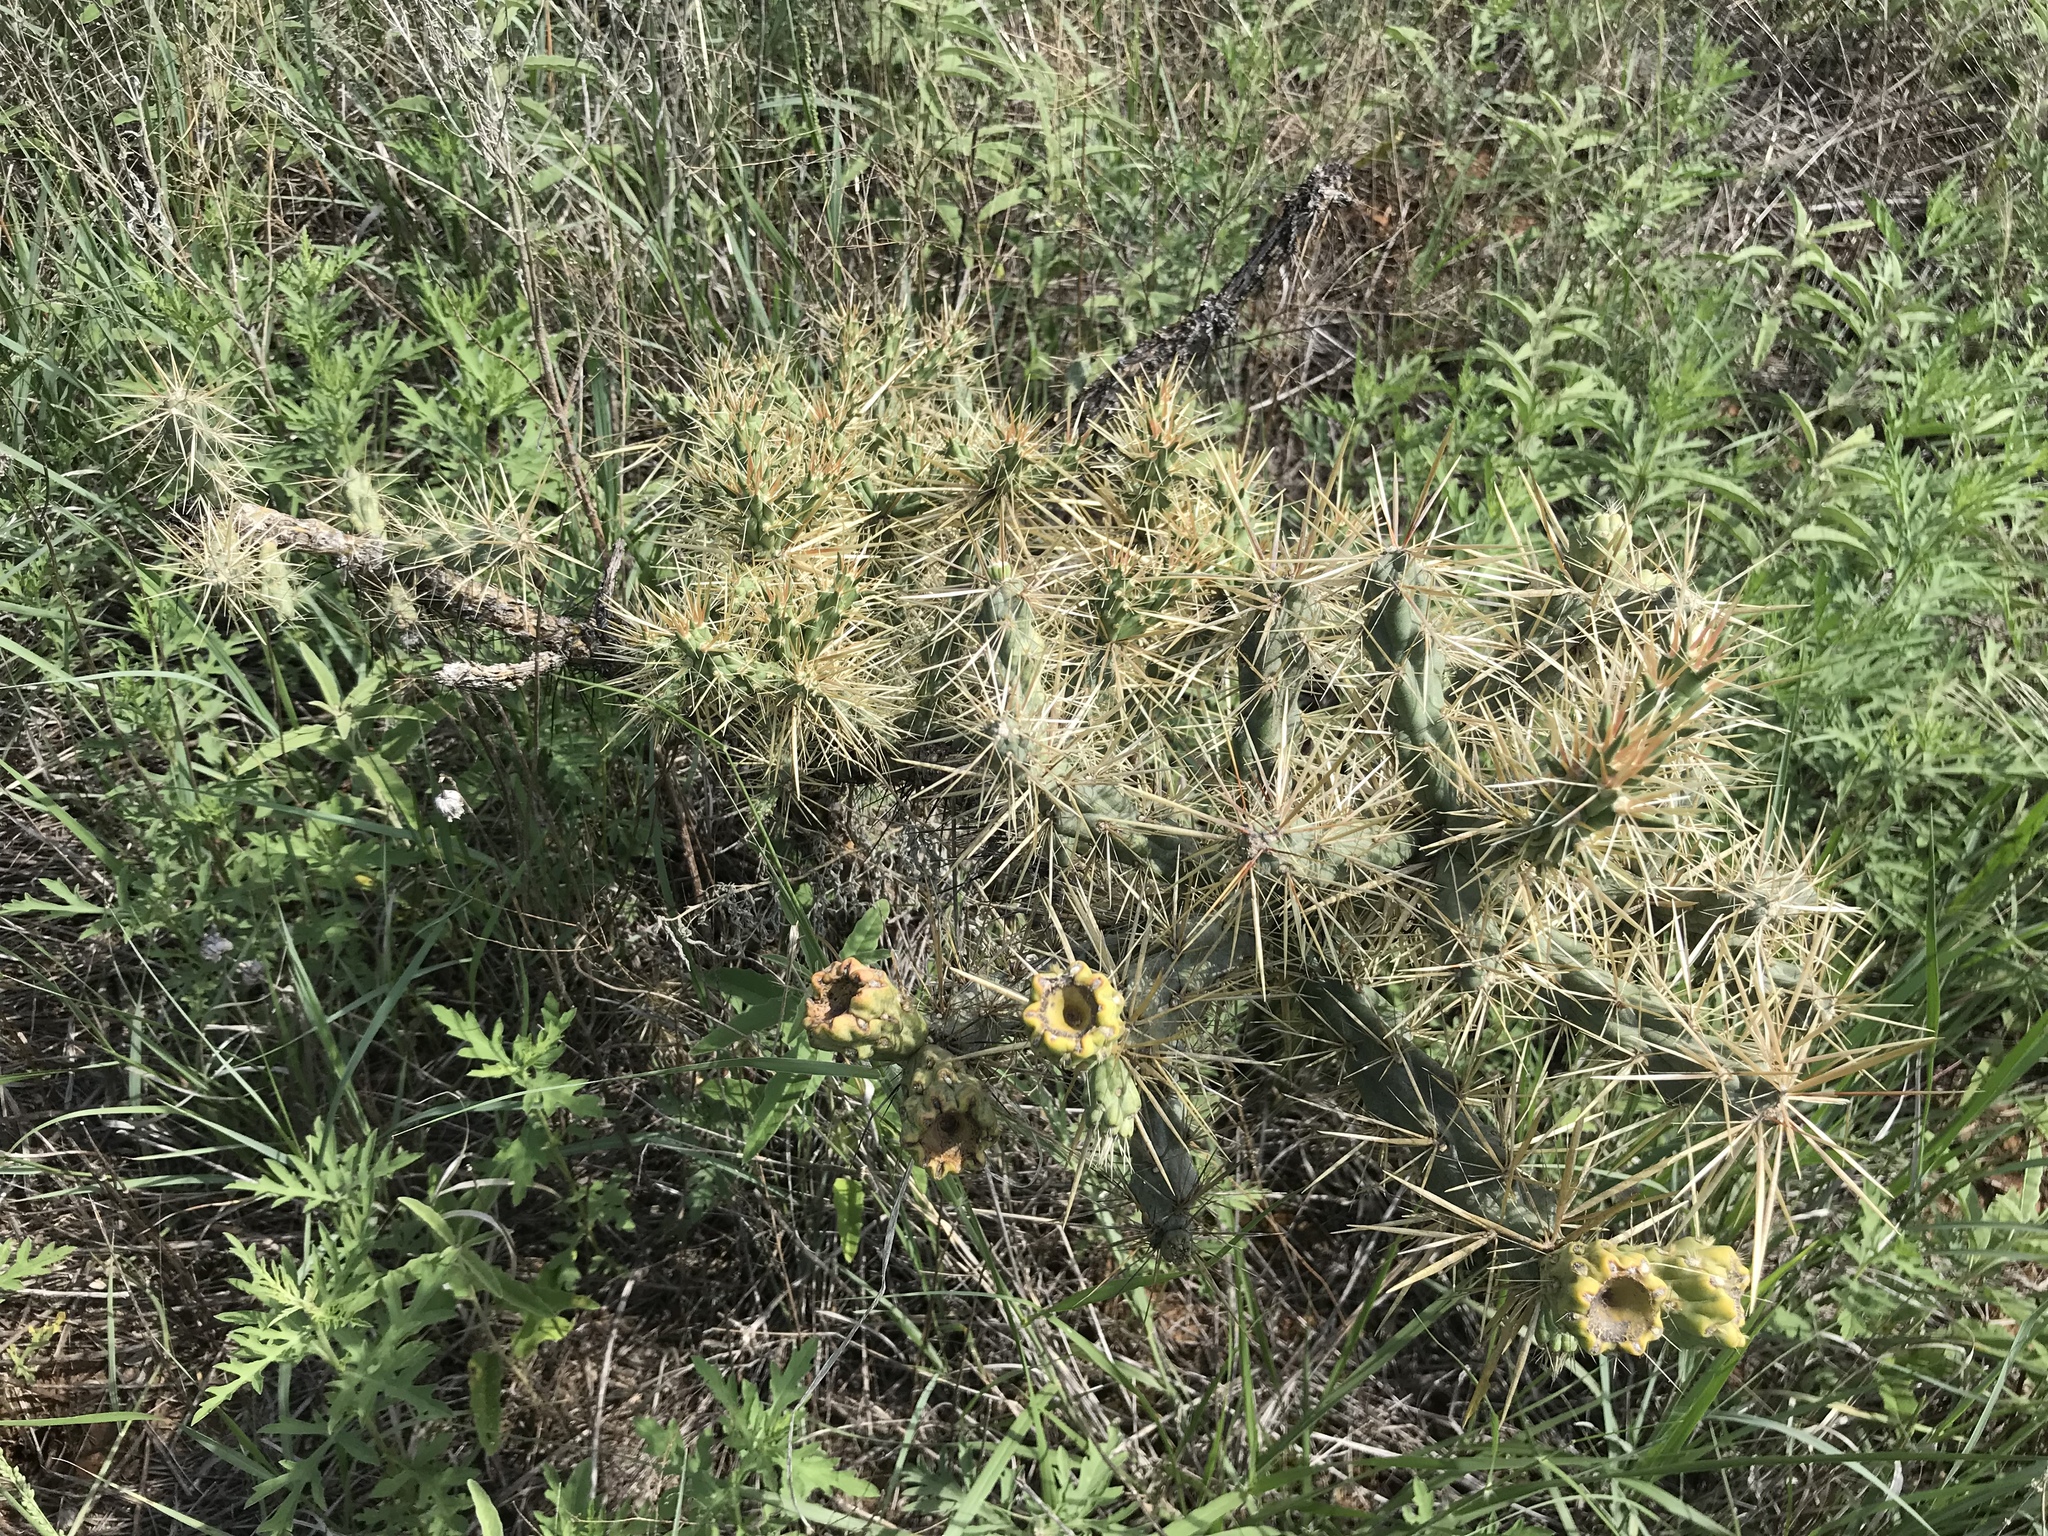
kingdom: Plantae
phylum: Tracheophyta
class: Magnoliopsida
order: Caryophyllales
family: Cactaceae
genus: Cylindropuntia
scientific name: Cylindropuntia davisii
